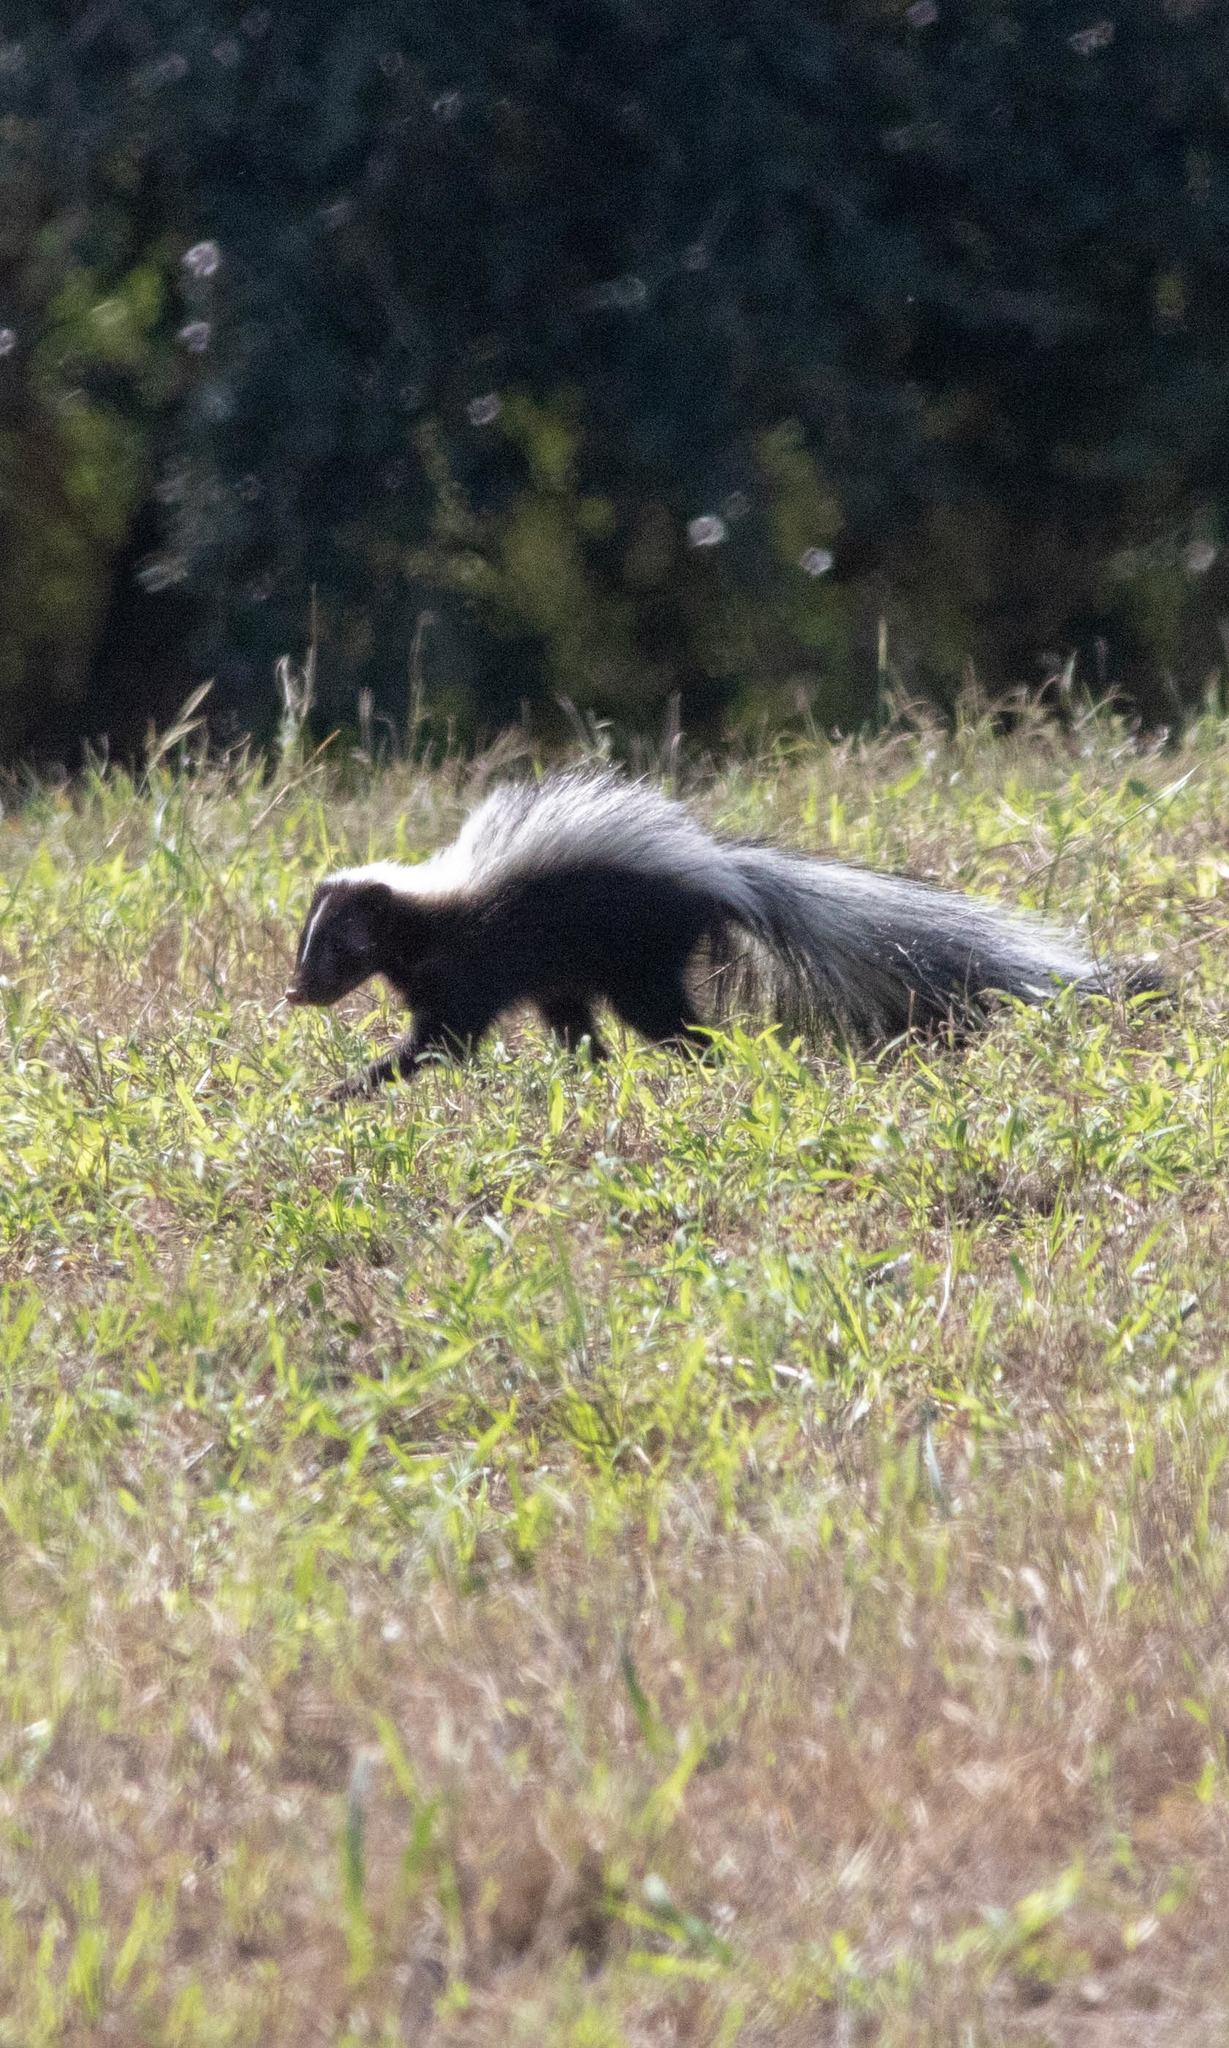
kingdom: Animalia
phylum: Chordata
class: Mammalia
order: Carnivora
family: Mephitidae
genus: Mephitis
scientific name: Mephitis mephitis
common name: Striped skunk
